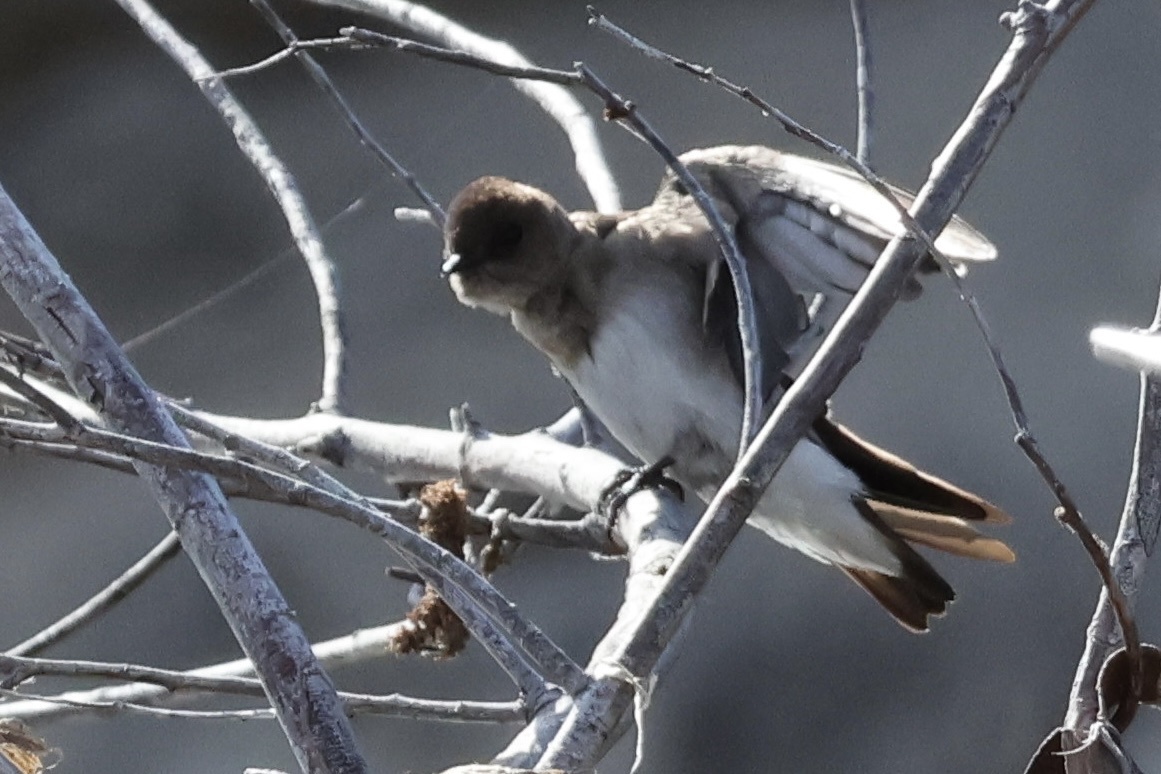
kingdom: Animalia
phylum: Chordata
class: Aves
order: Passeriformes
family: Hirundinidae
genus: Stelgidopteryx
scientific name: Stelgidopteryx serripennis
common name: Northern rough-winged swallow
